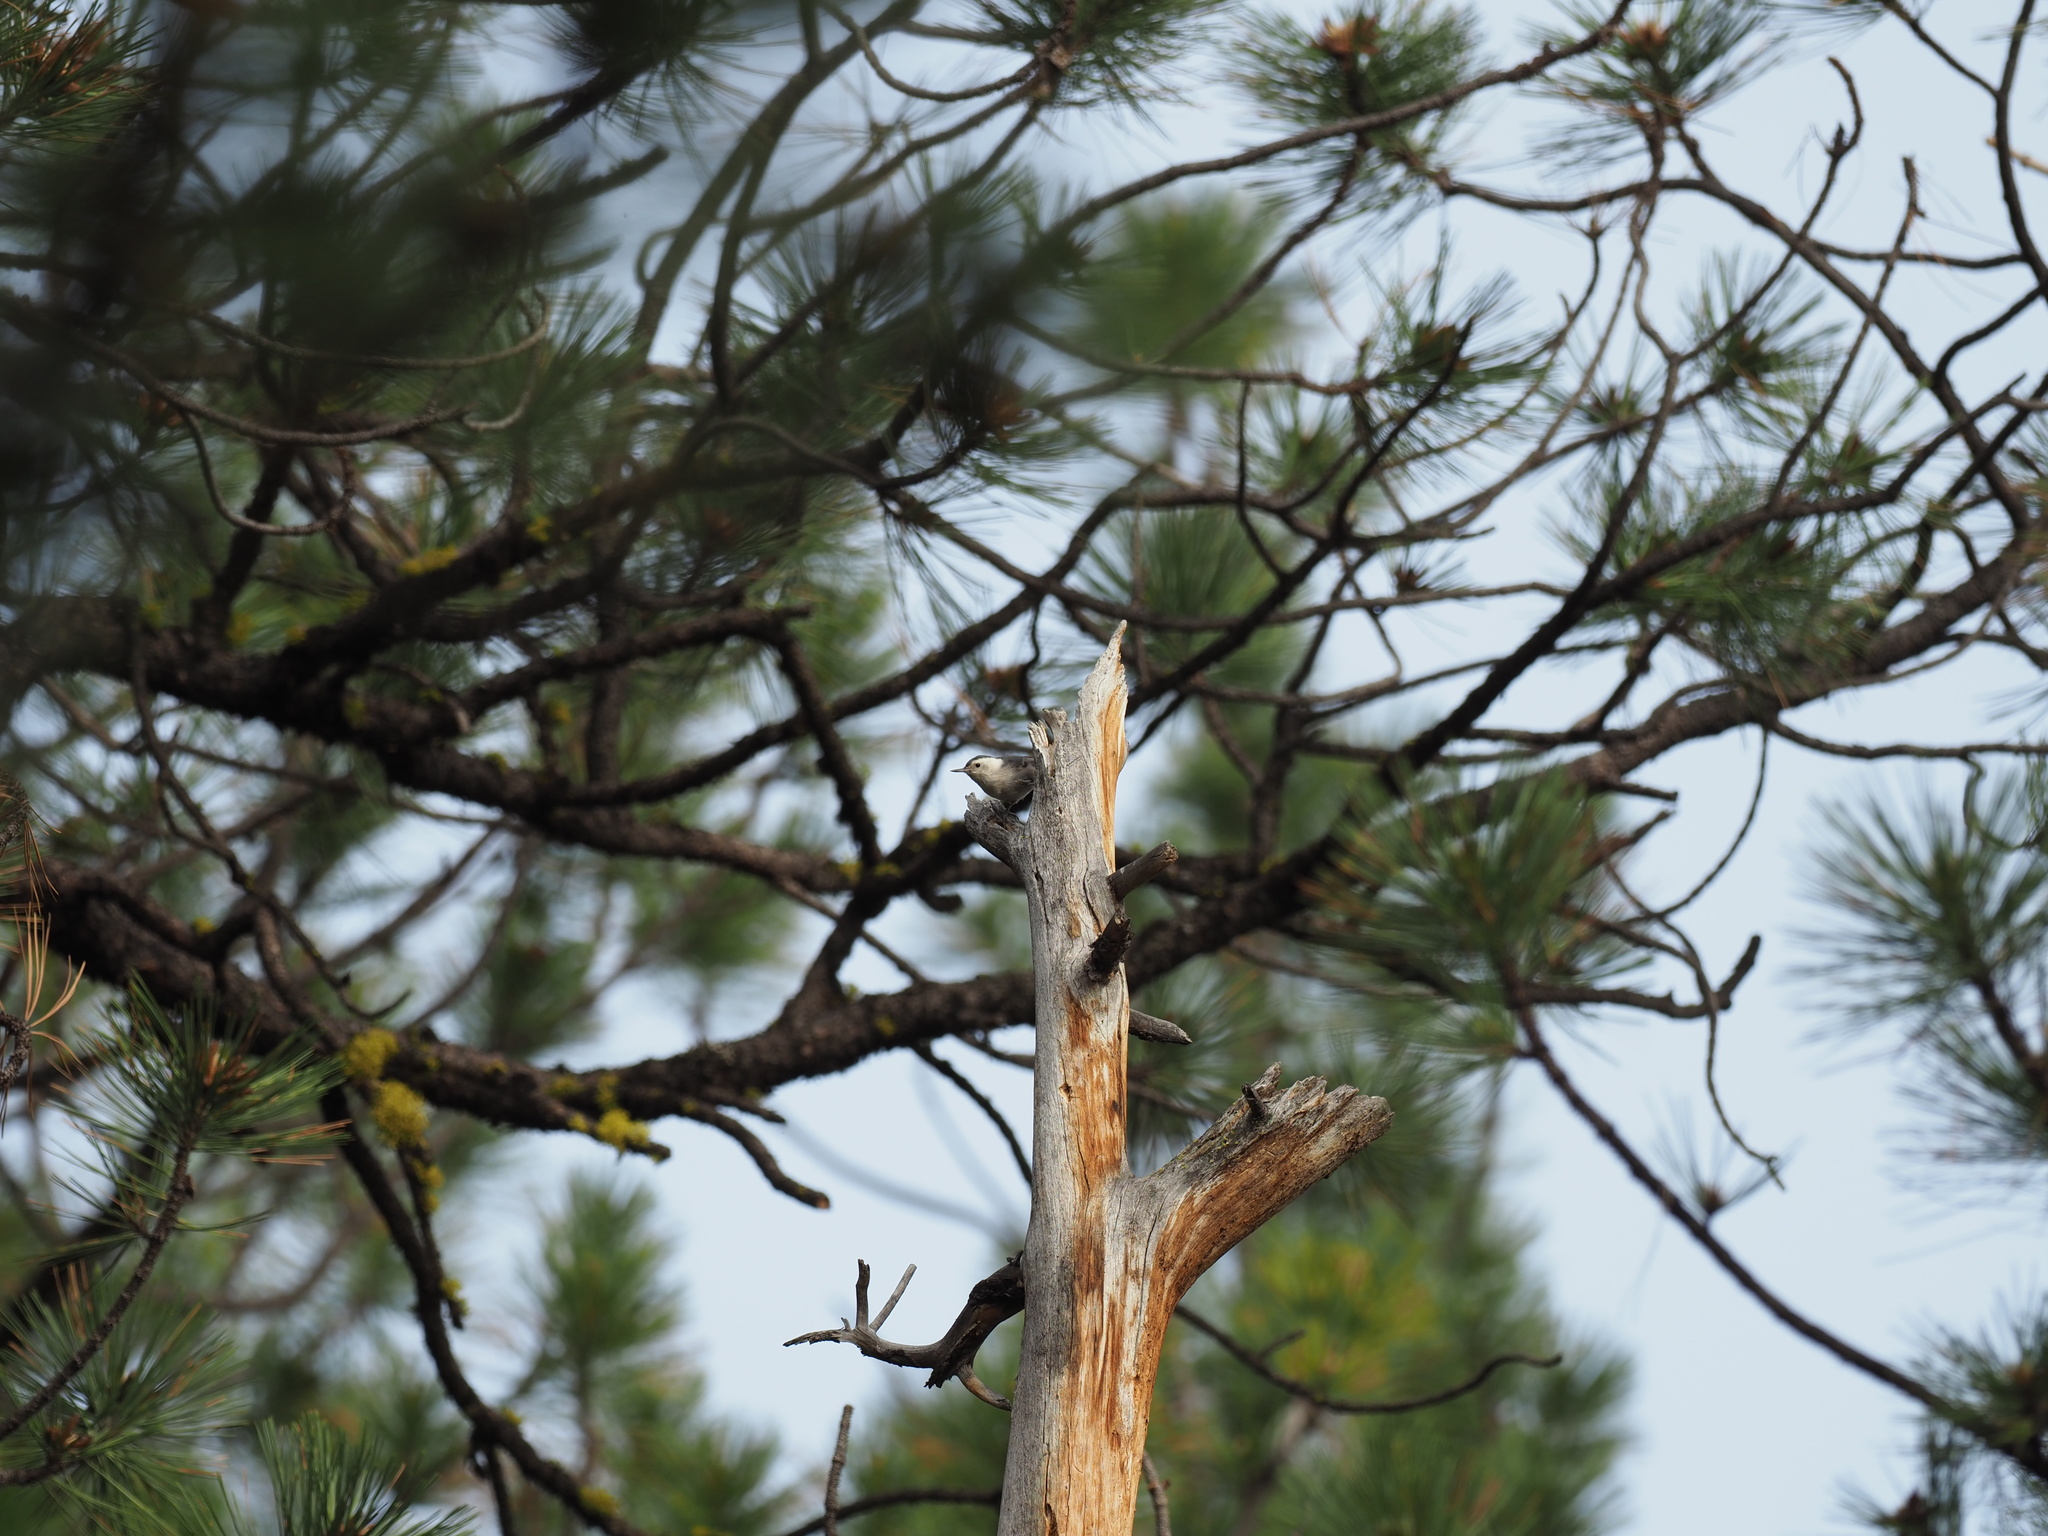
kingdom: Animalia
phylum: Chordata
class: Aves
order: Passeriformes
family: Sittidae
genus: Sitta
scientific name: Sitta carolinensis
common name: White-breasted nuthatch
